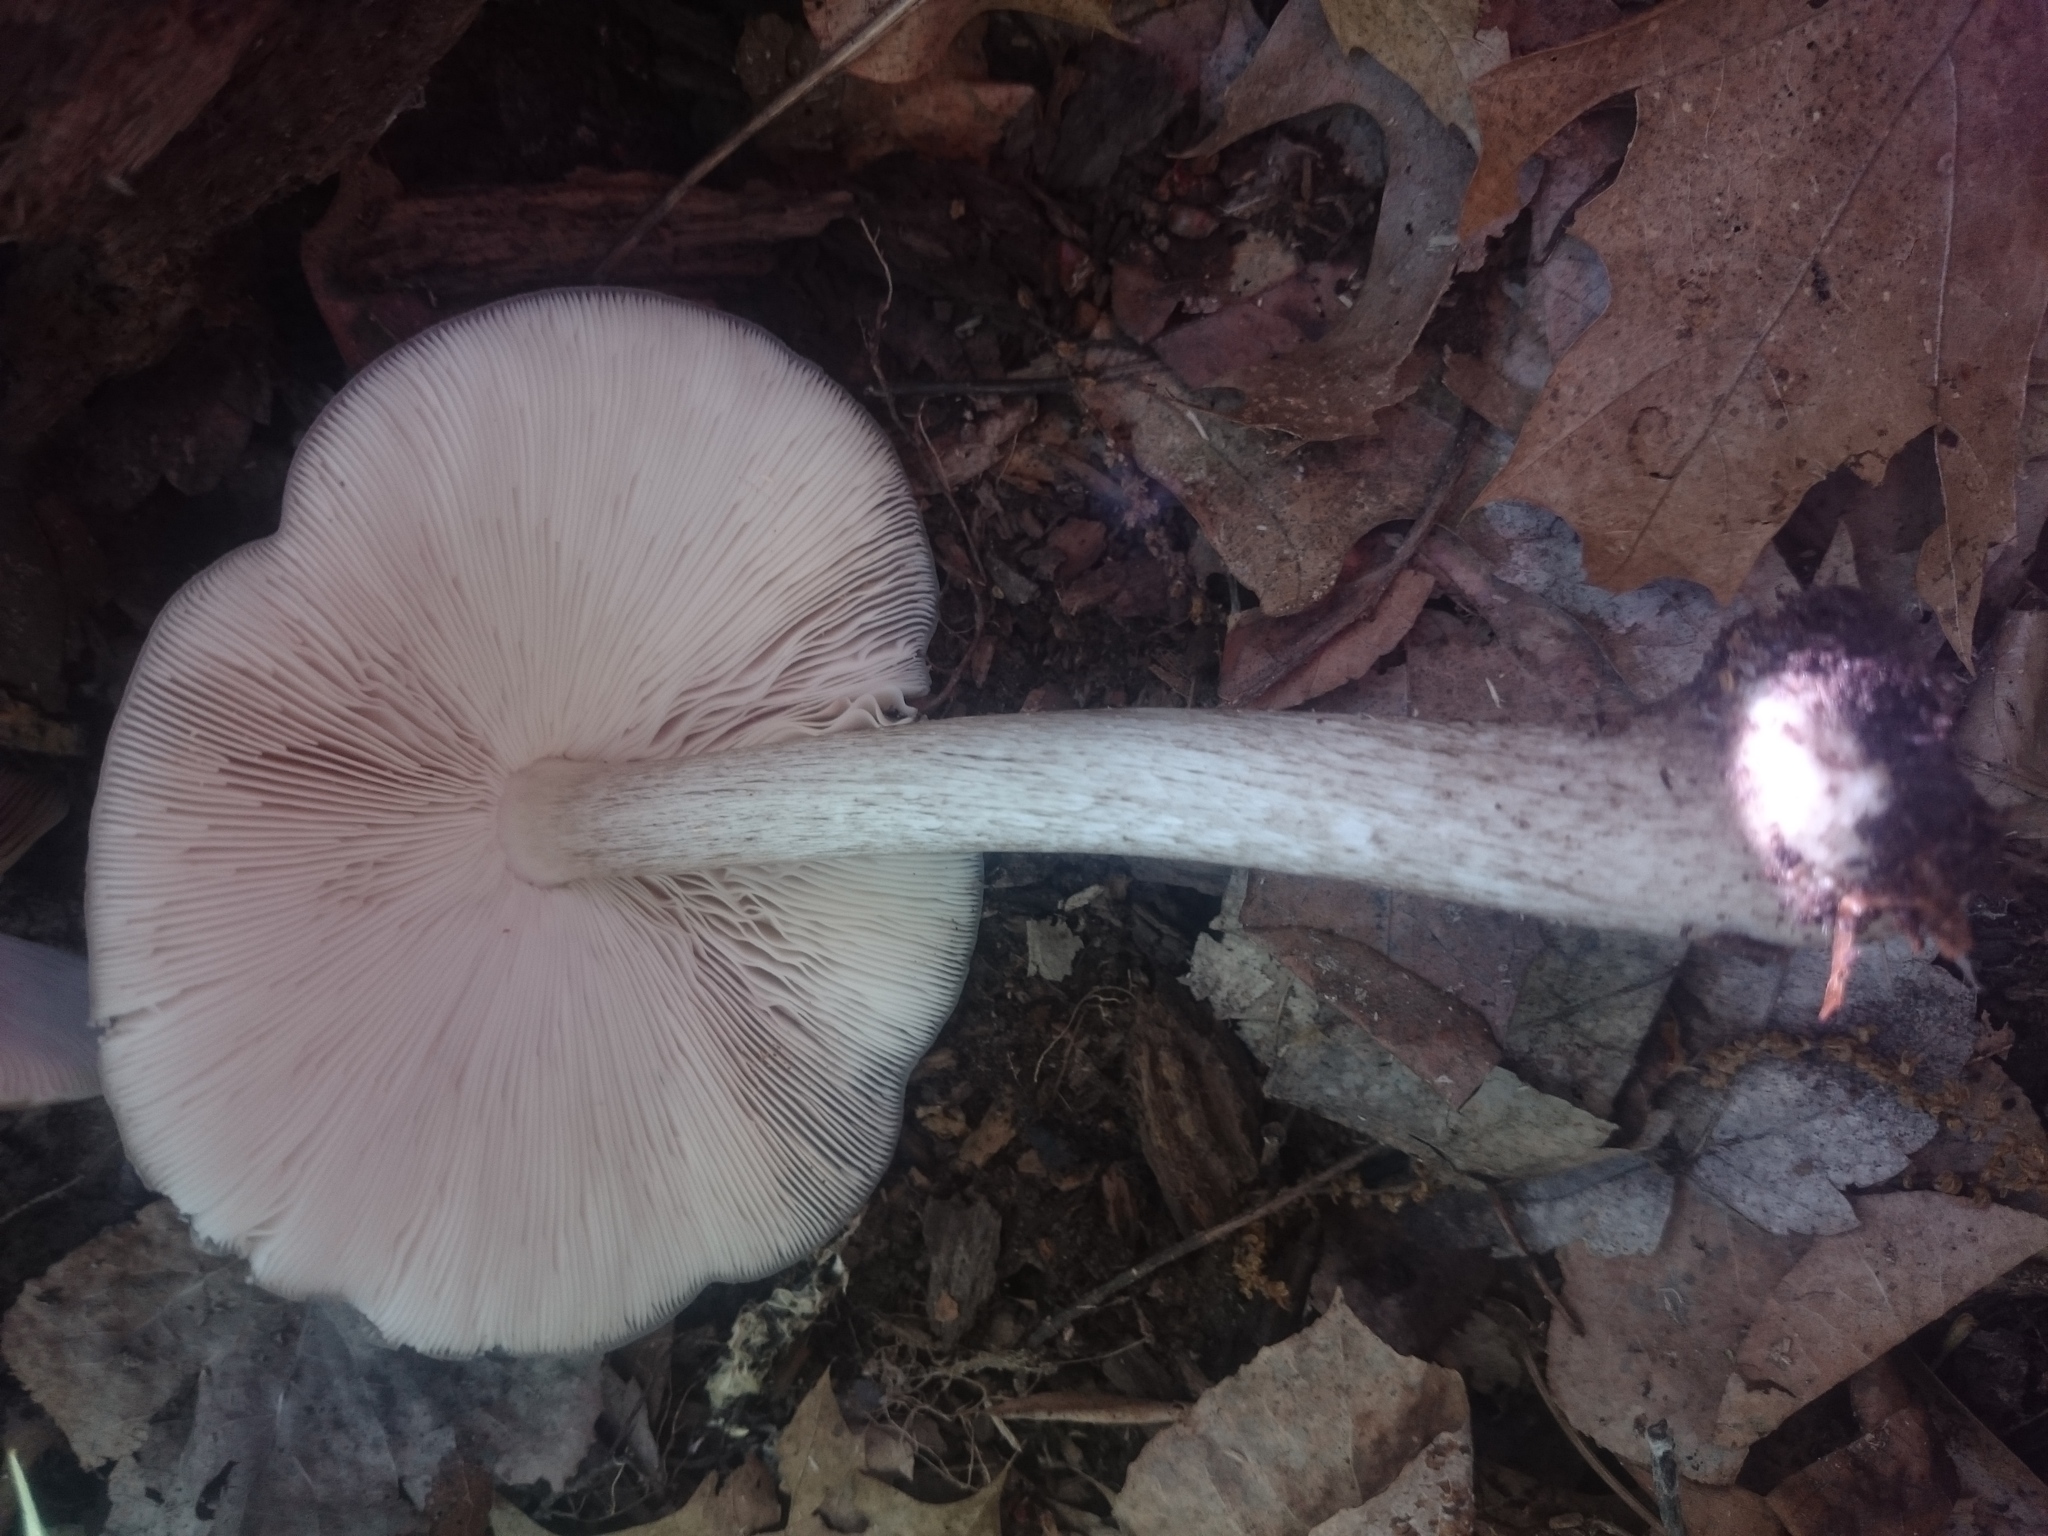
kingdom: Fungi
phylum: Basidiomycota
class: Agaricomycetes
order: Agaricales
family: Pluteaceae
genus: Pluteus
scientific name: Pluteus
